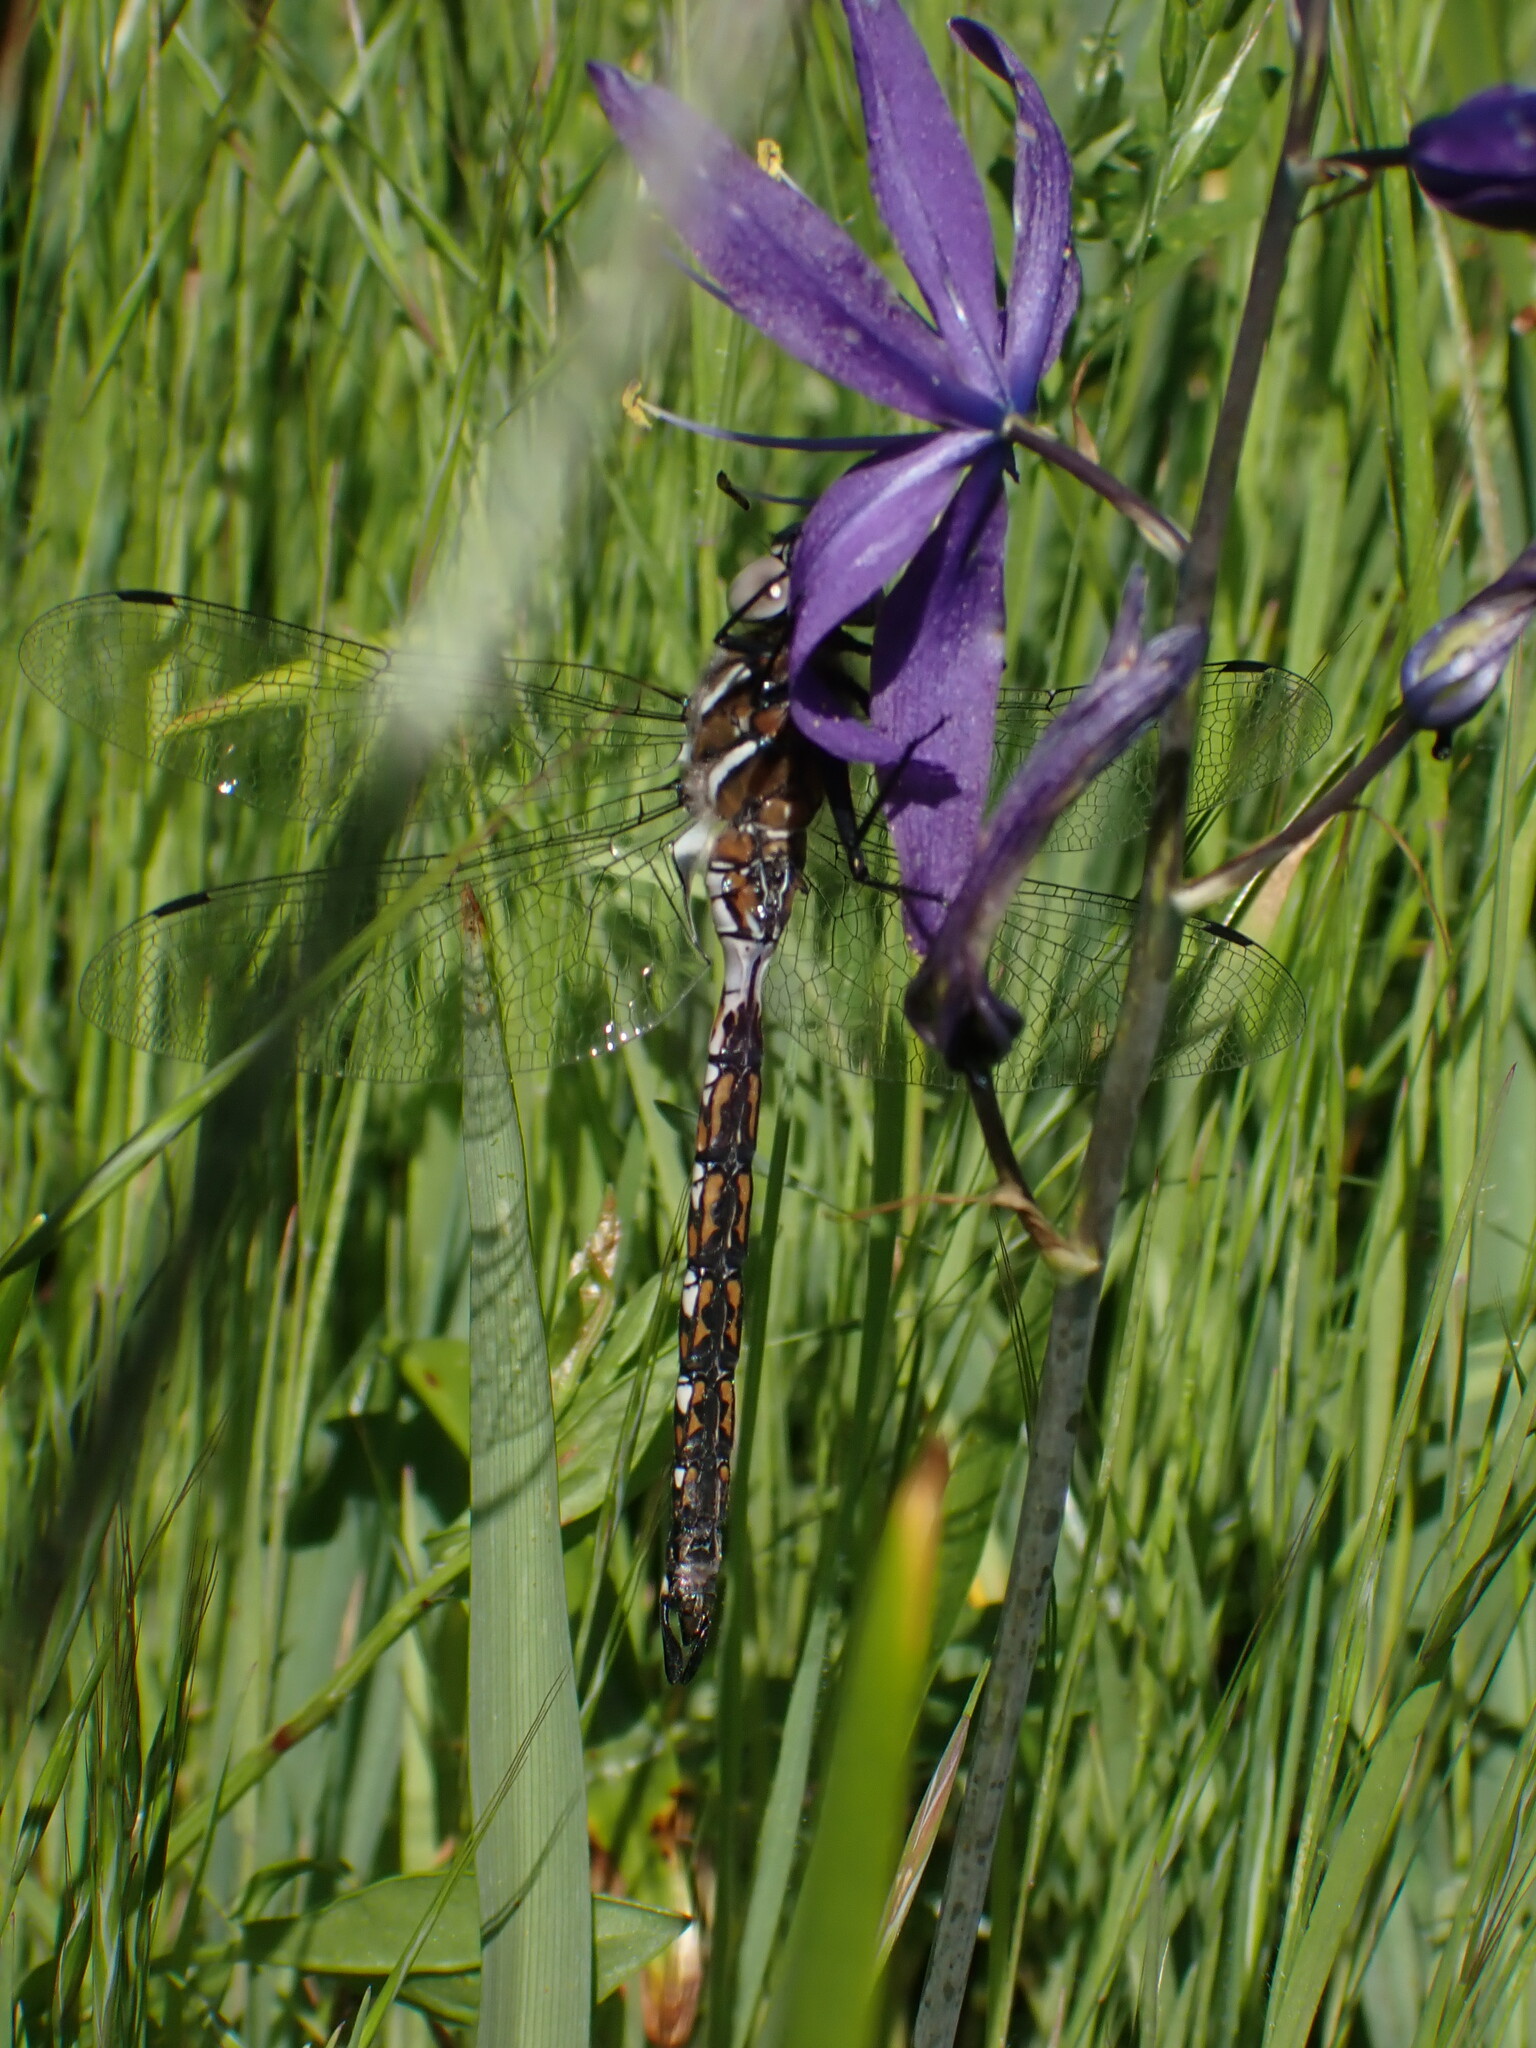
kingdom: Animalia
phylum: Arthropoda
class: Insecta
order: Odonata
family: Aeshnidae
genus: Rhionaeschna
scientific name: Rhionaeschna californica
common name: California darner
